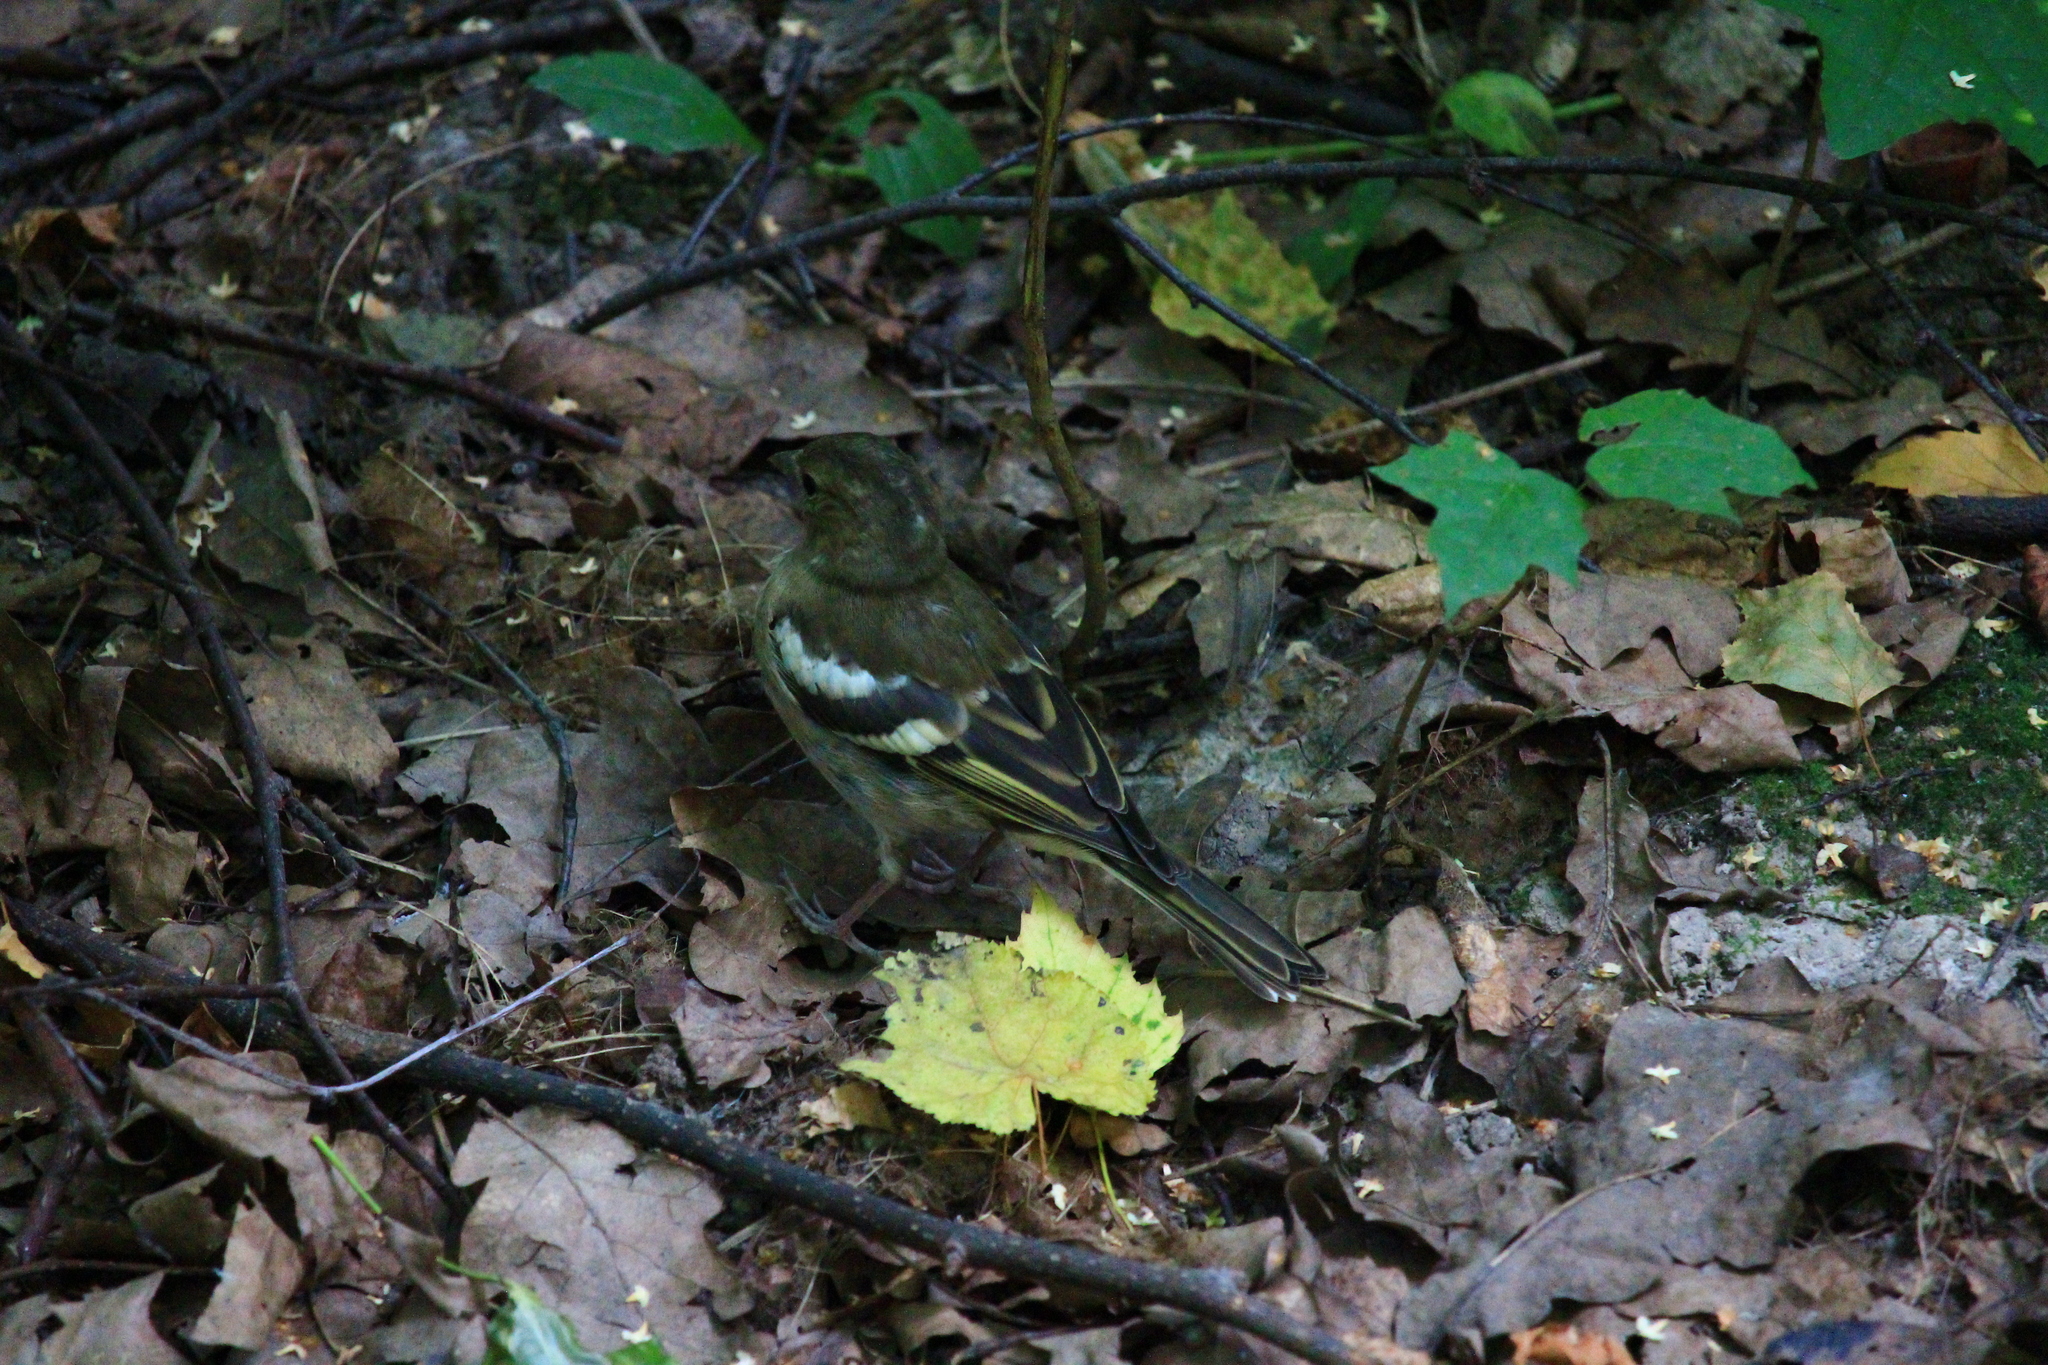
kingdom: Animalia
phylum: Chordata
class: Aves
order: Passeriformes
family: Fringillidae
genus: Fringilla
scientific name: Fringilla coelebs
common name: Common chaffinch
